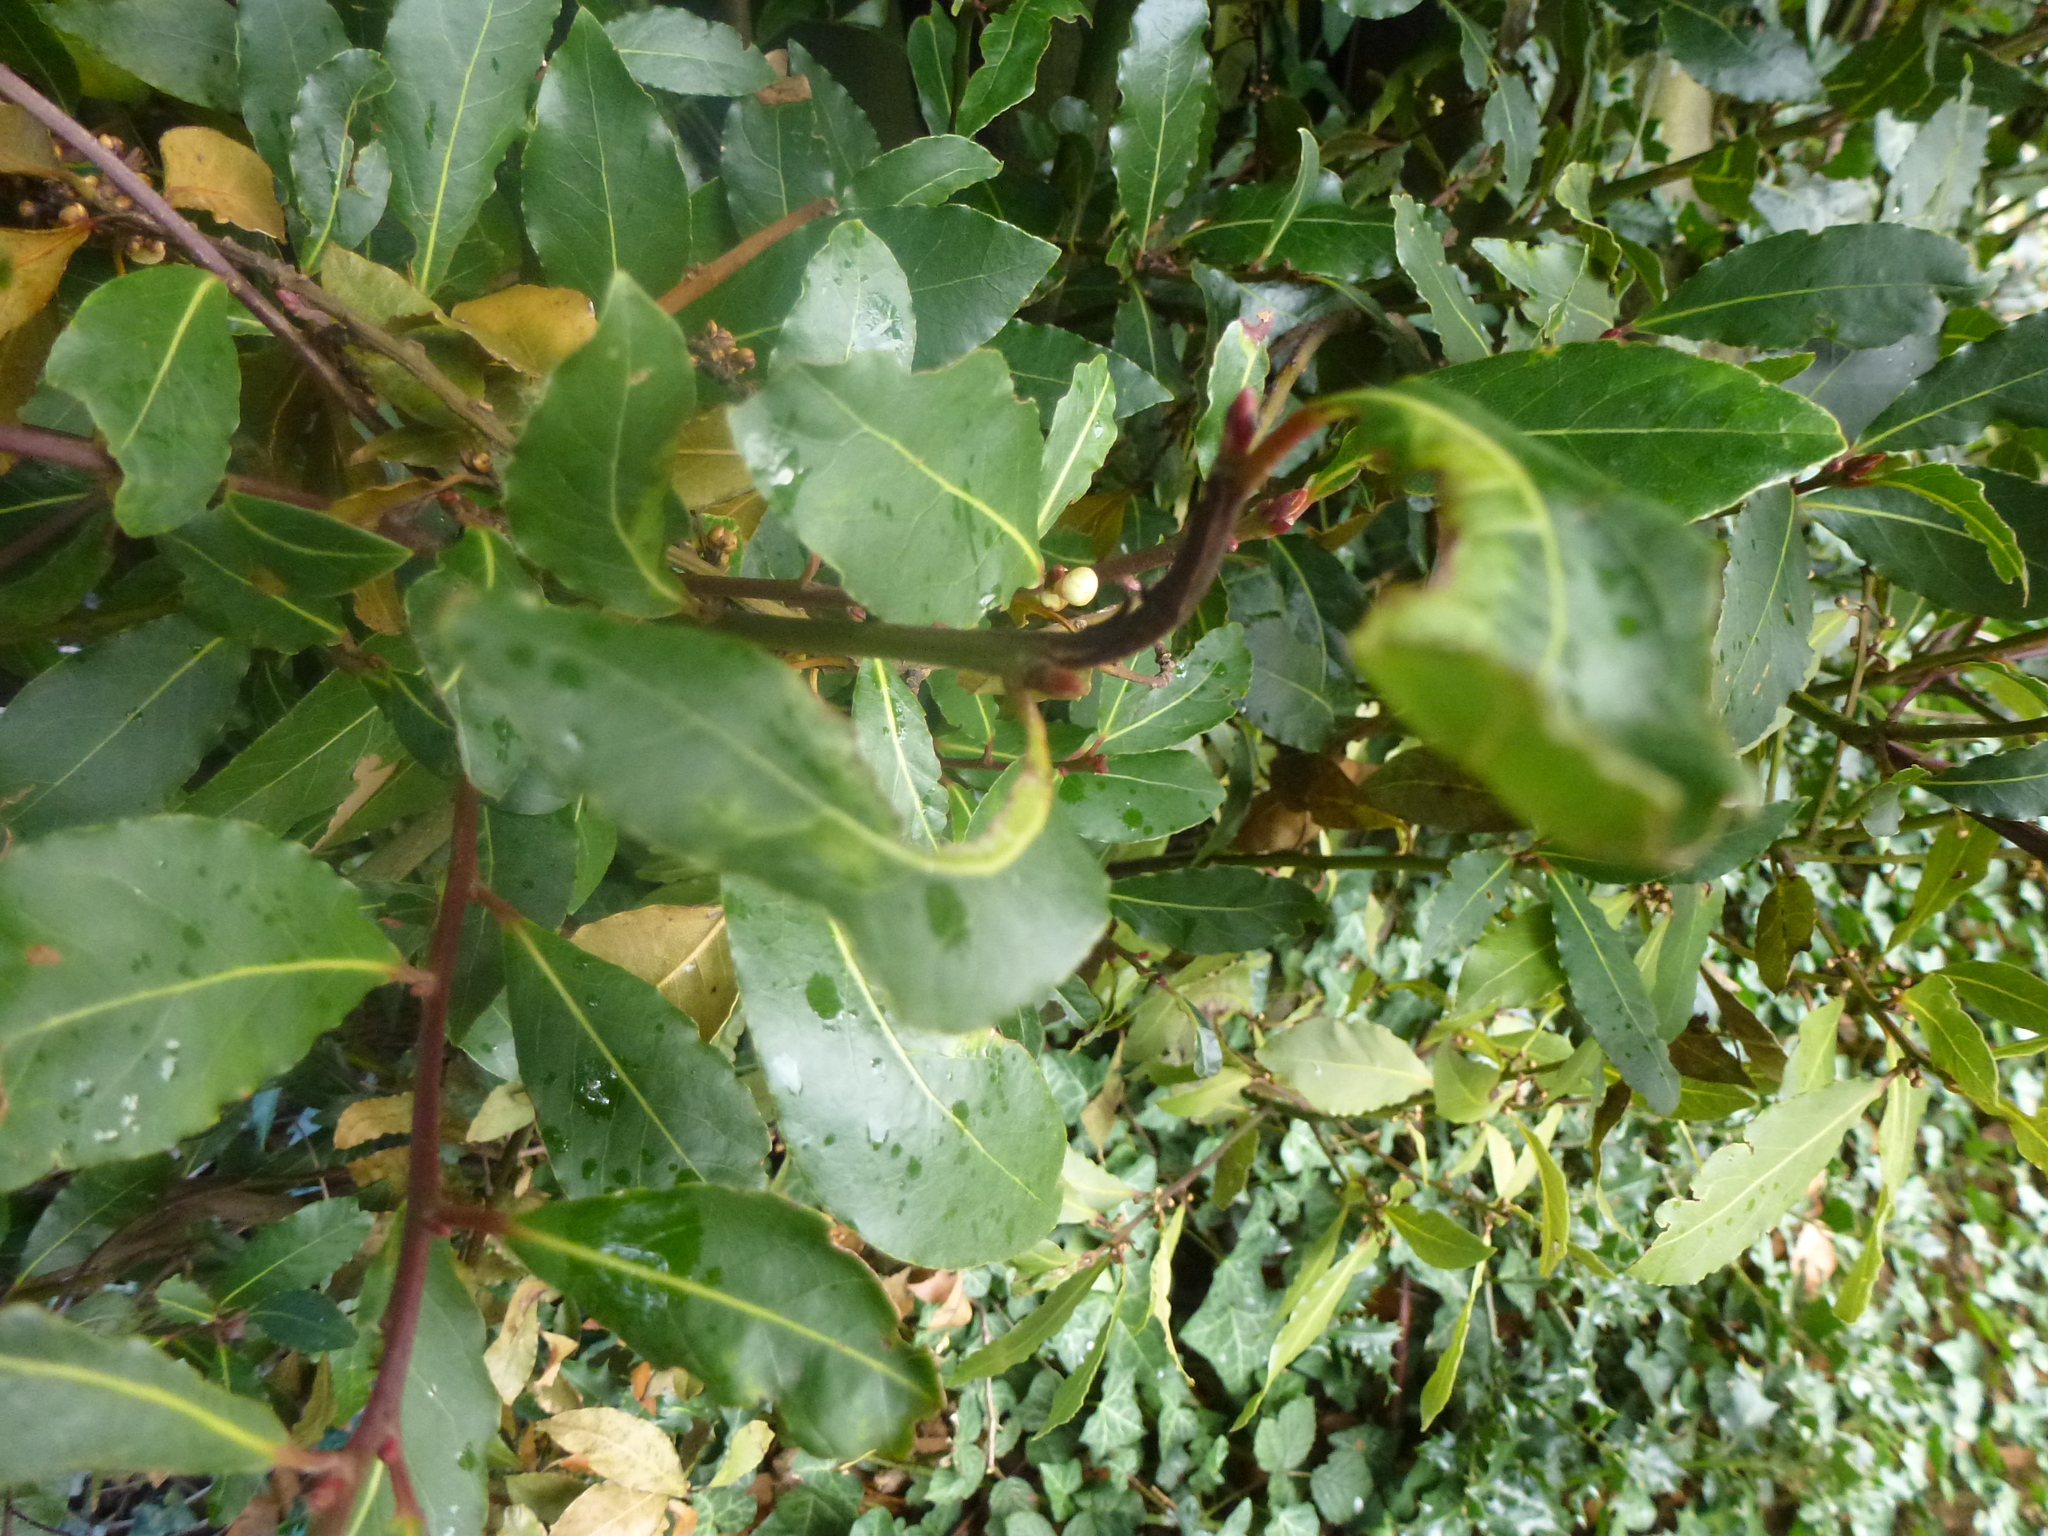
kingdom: Animalia
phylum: Arthropoda
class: Insecta
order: Hemiptera
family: Triozidae
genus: Lauritrioza
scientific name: Lauritrioza alacris
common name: Laurel psyllid
